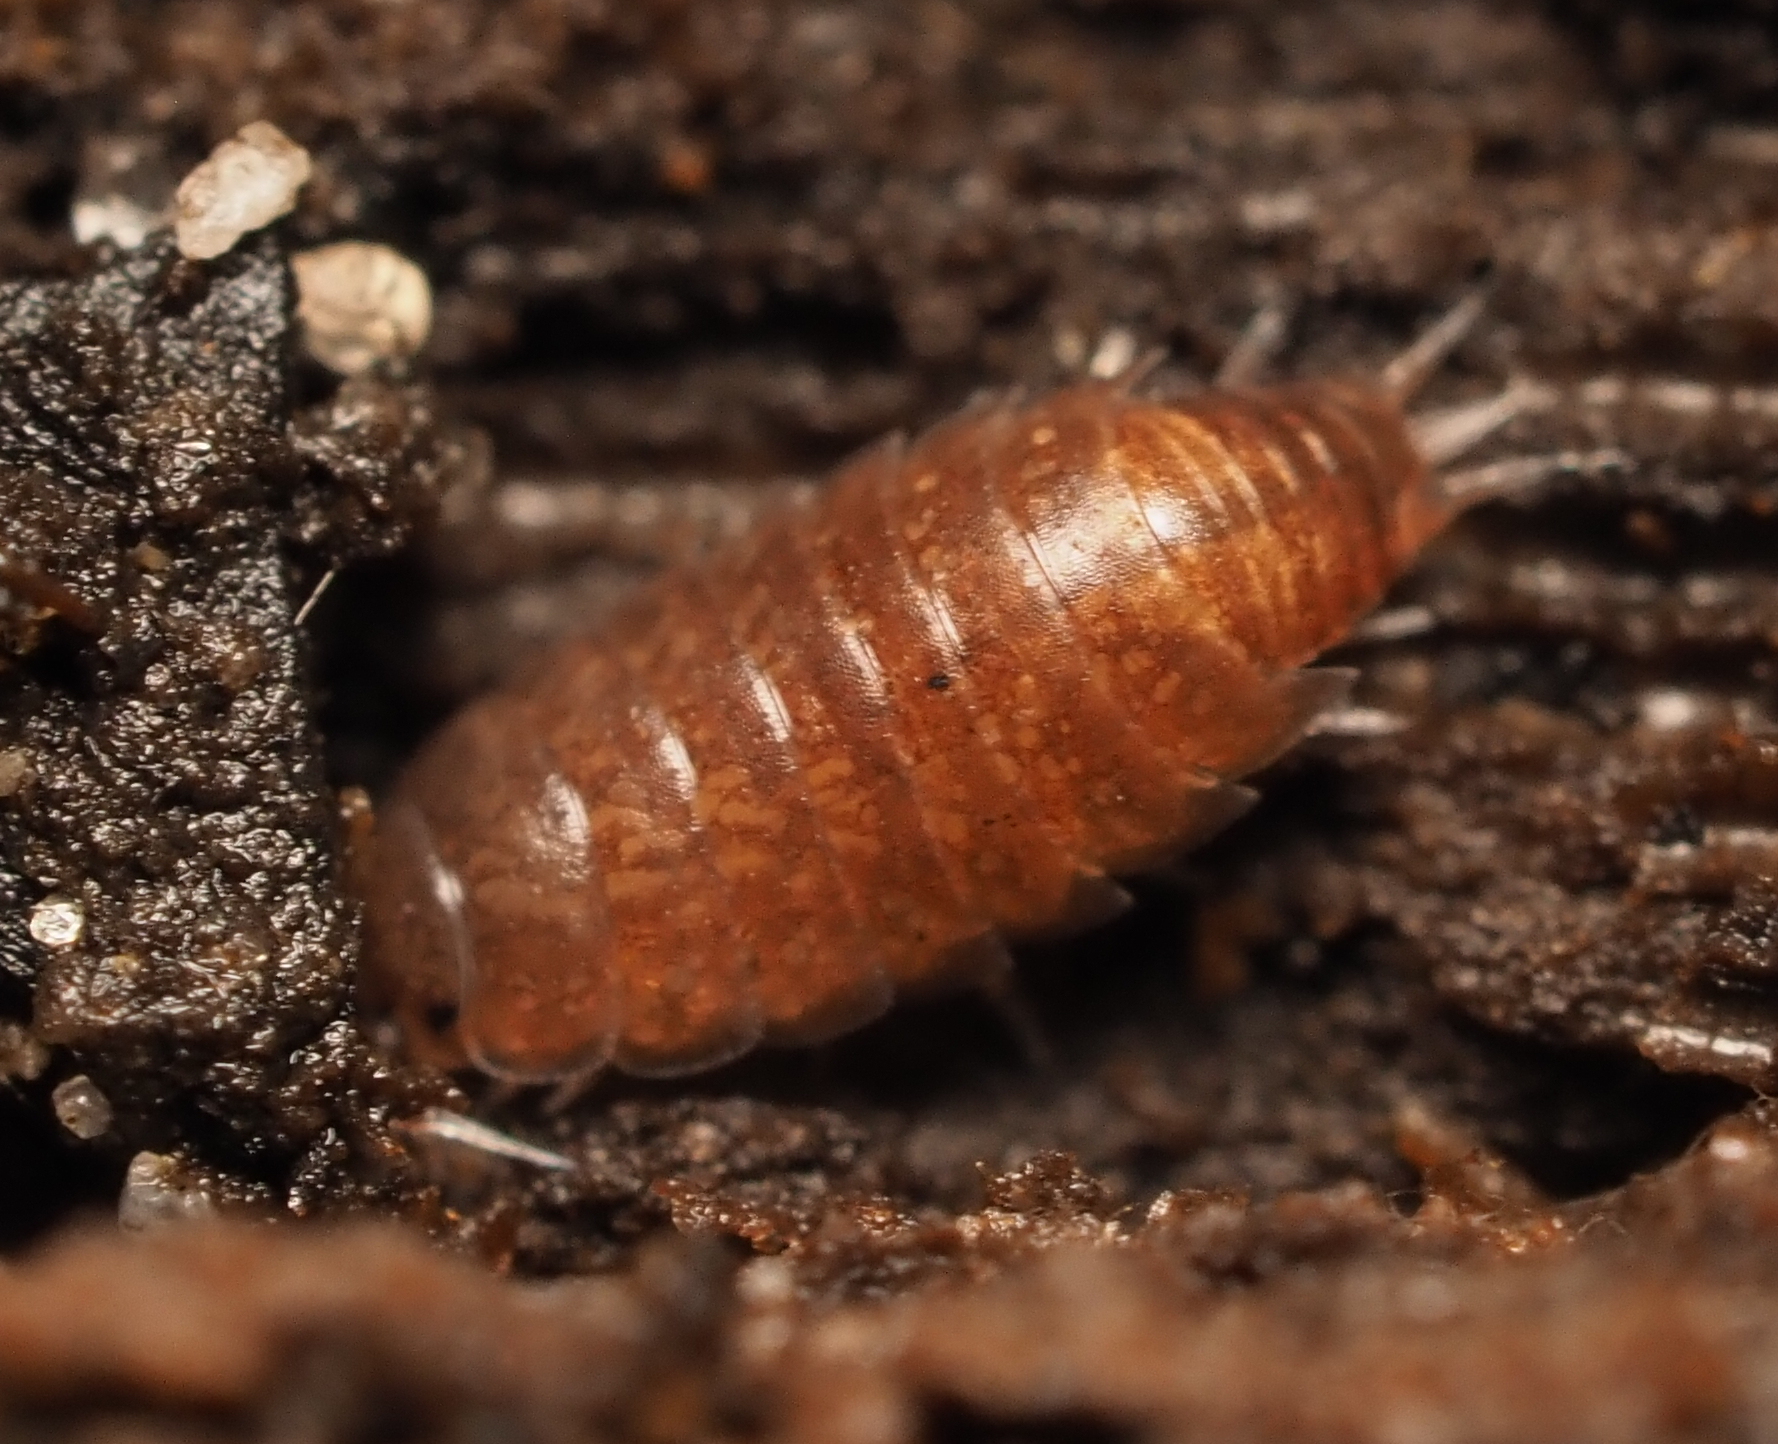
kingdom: Animalia
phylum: Arthropoda
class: Malacostraca
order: Isopoda
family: Trichoniscidae
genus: Hyloniscus
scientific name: Hyloniscus riparius
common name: Isopod
